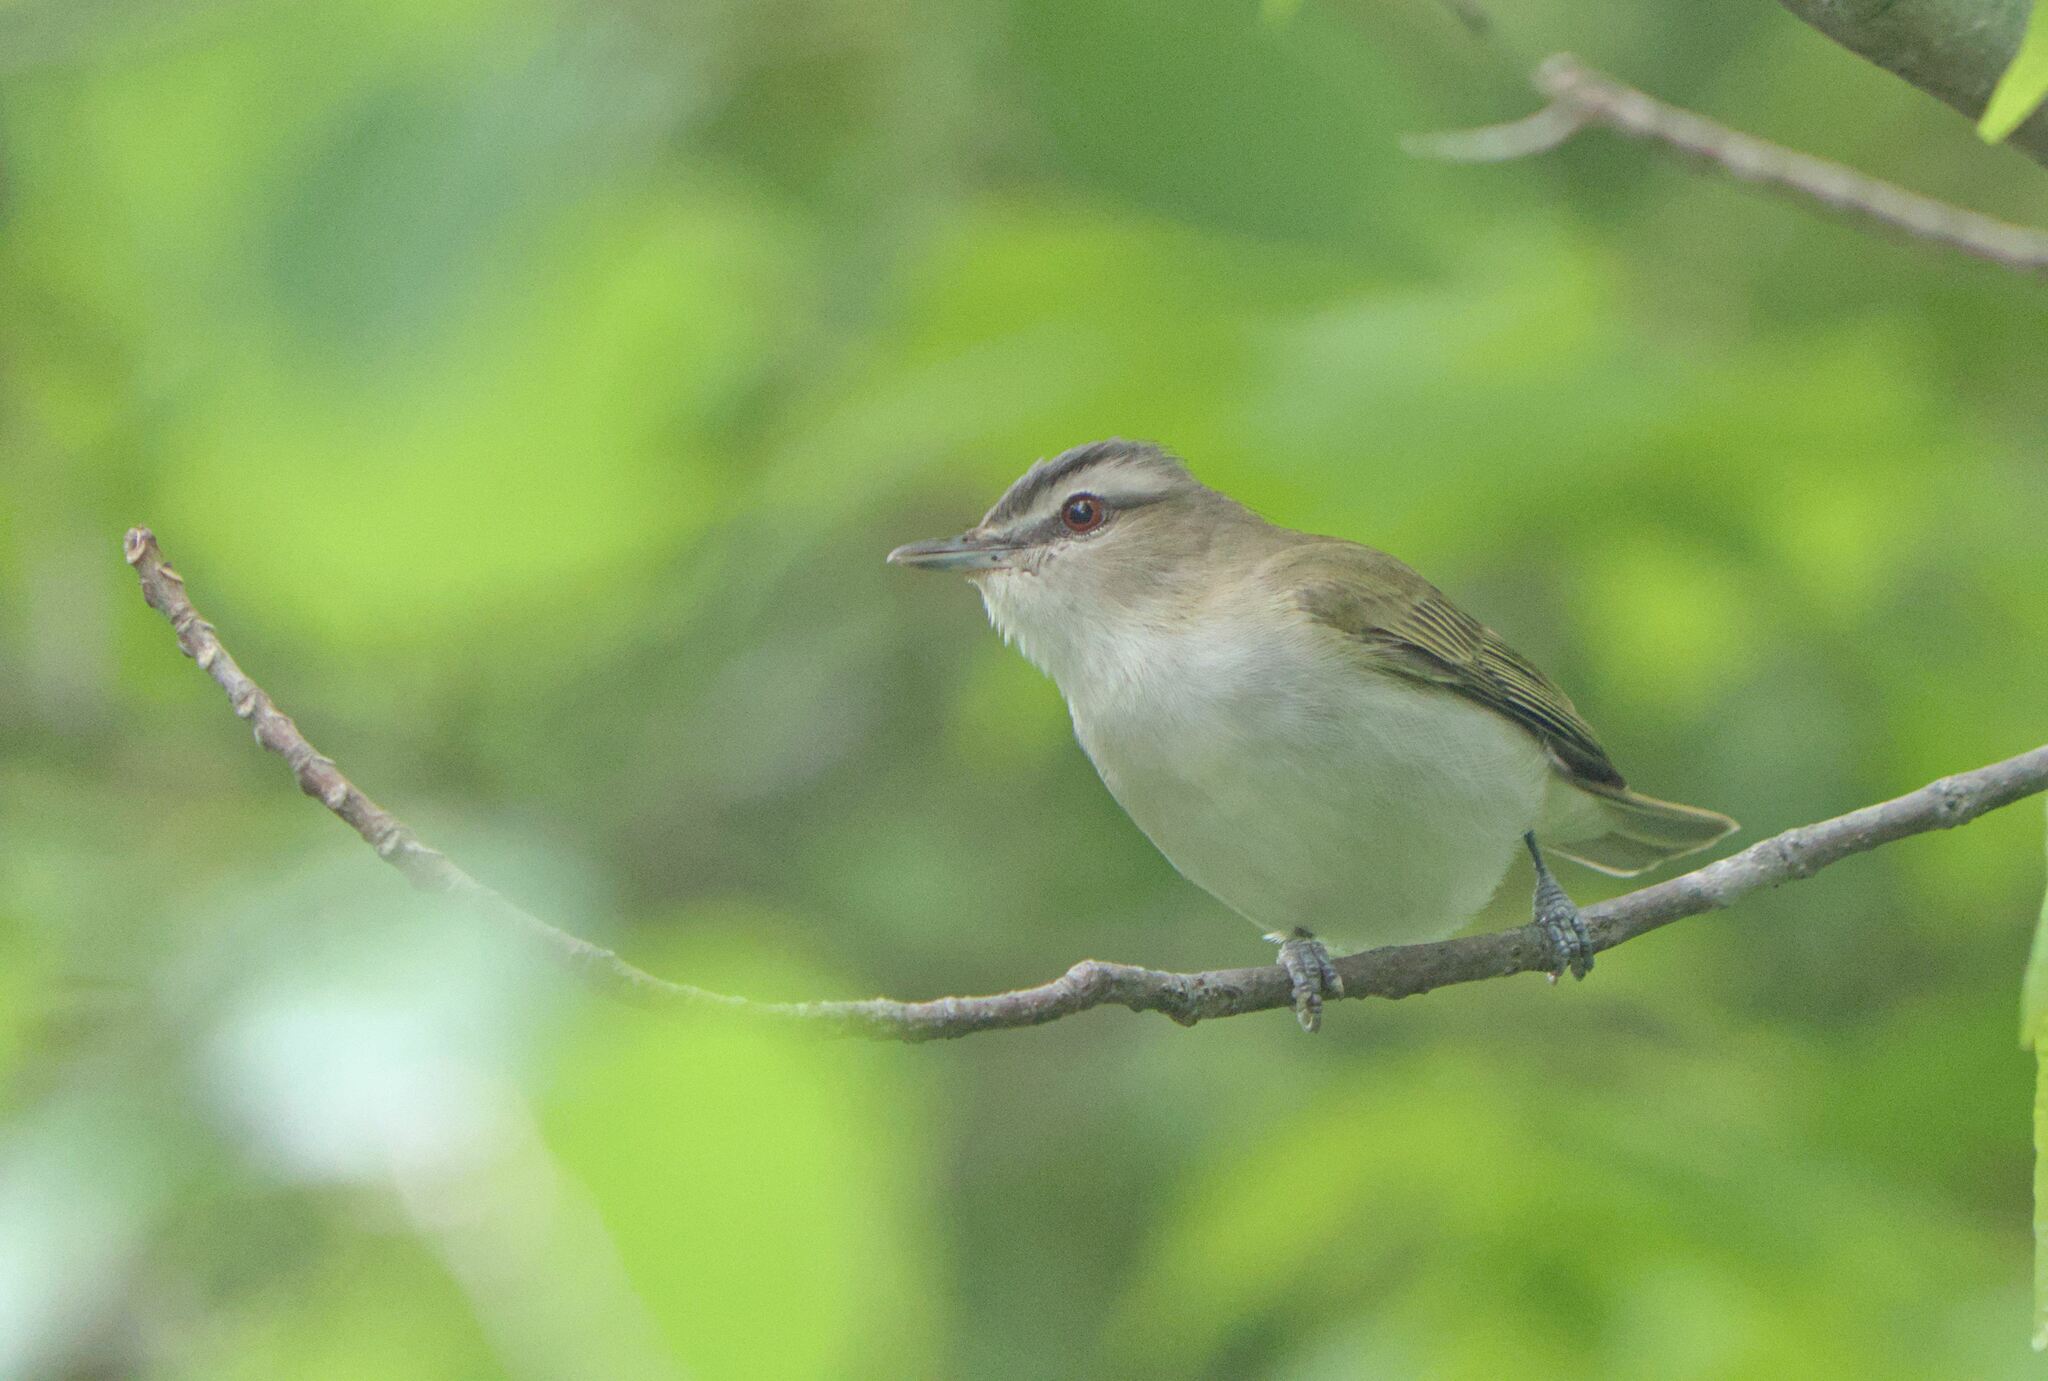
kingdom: Animalia
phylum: Chordata
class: Aves
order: Passeriformes
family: Vireonidae
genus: Vireo
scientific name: Vireo olivaceus
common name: Red-eyed vireo
